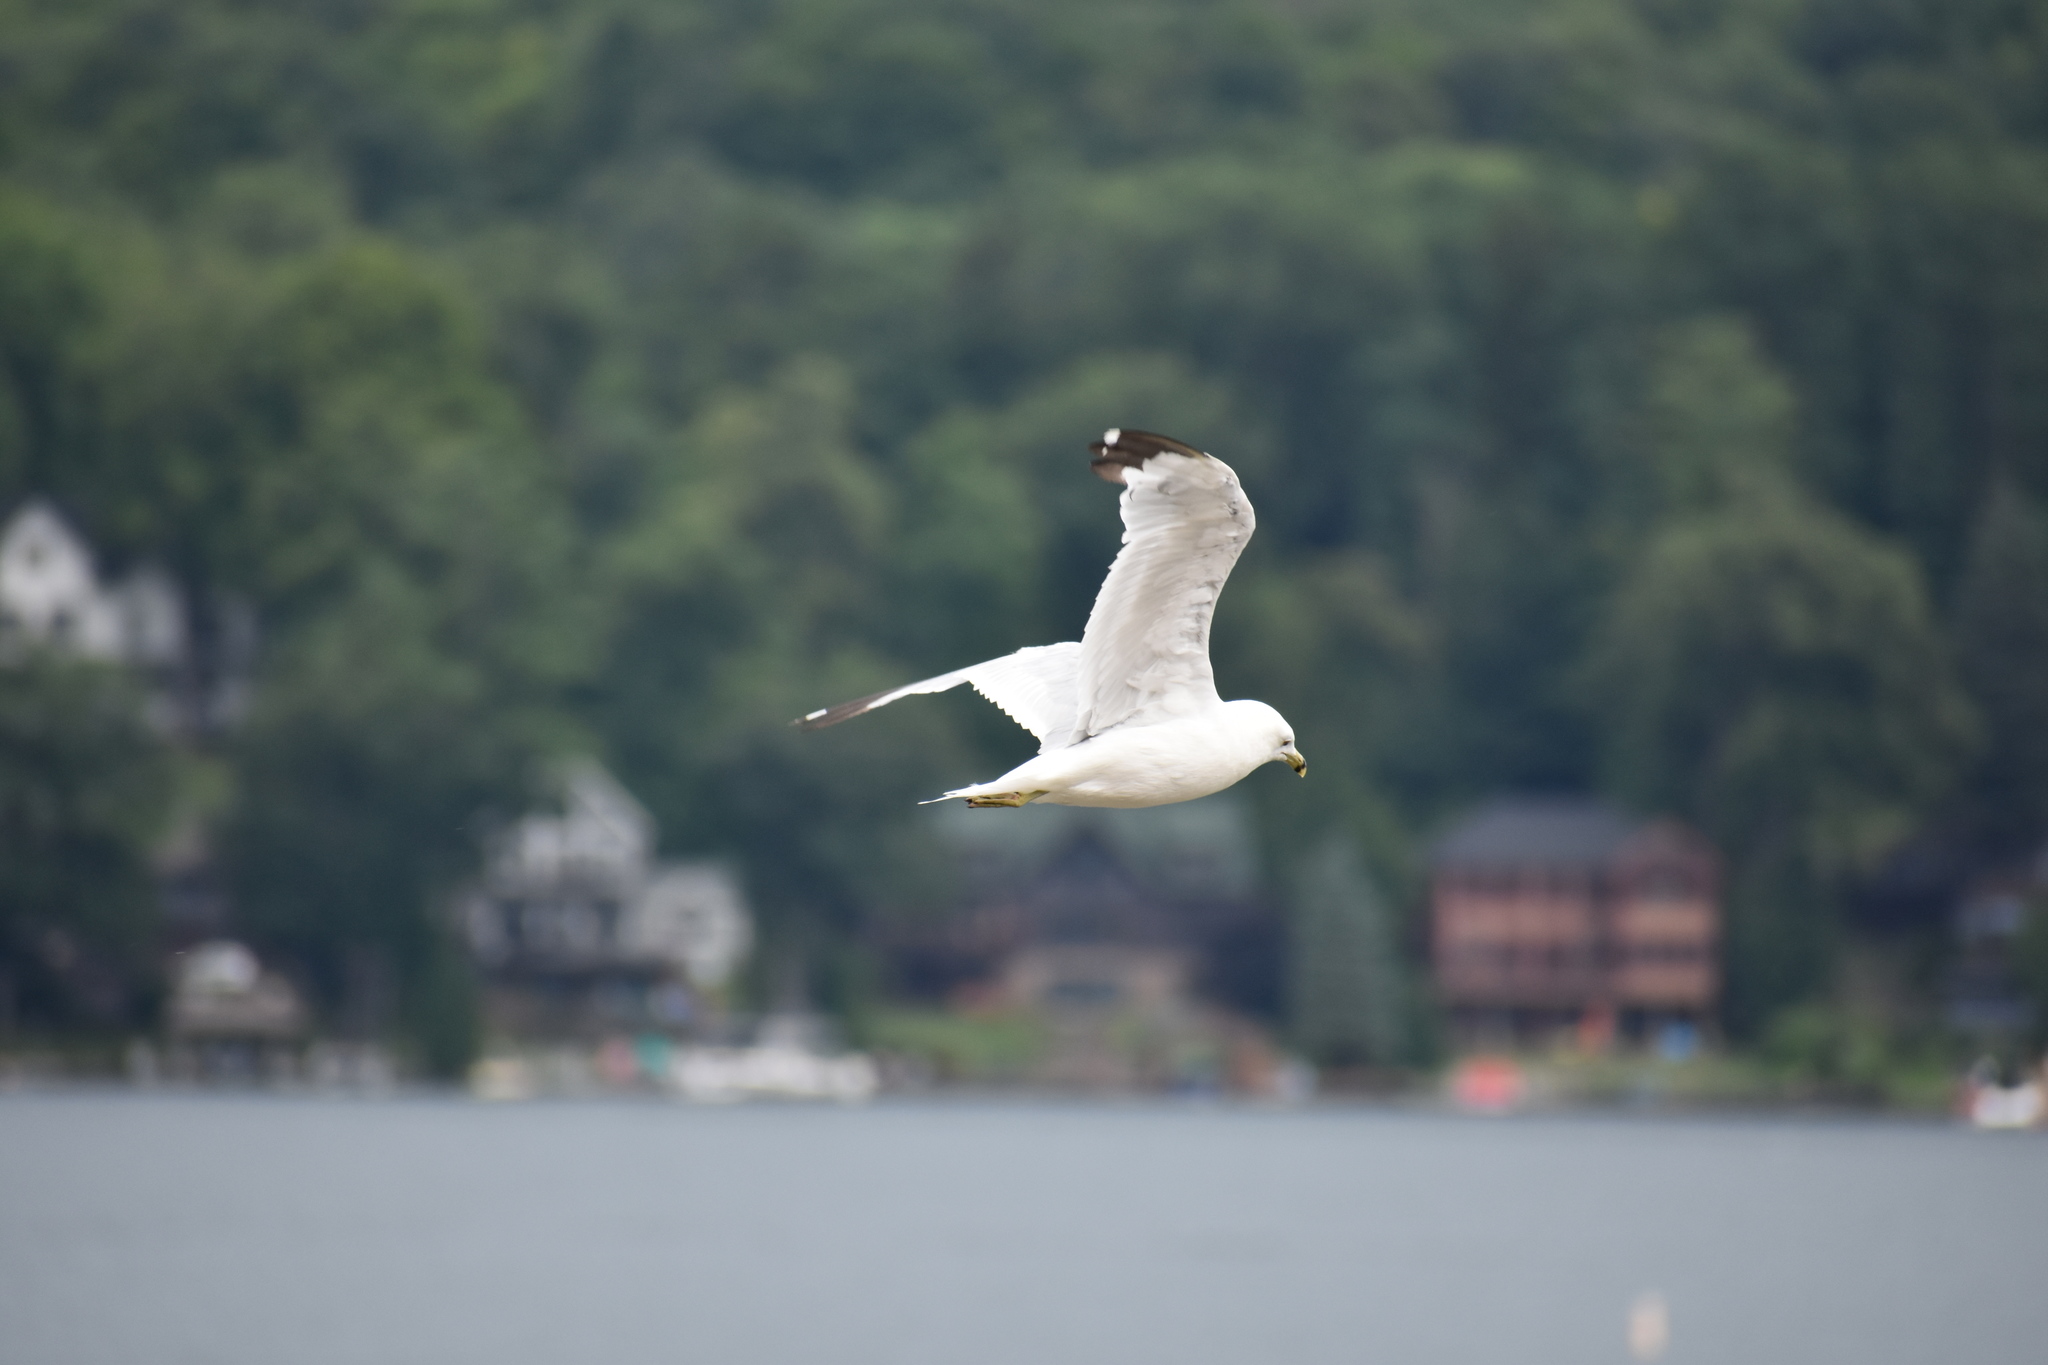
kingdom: Animalia
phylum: Chordata
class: Aves
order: Charadriiformes
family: Laridae
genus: Larus
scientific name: Larus delawarensis
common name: Ring-billed gull
